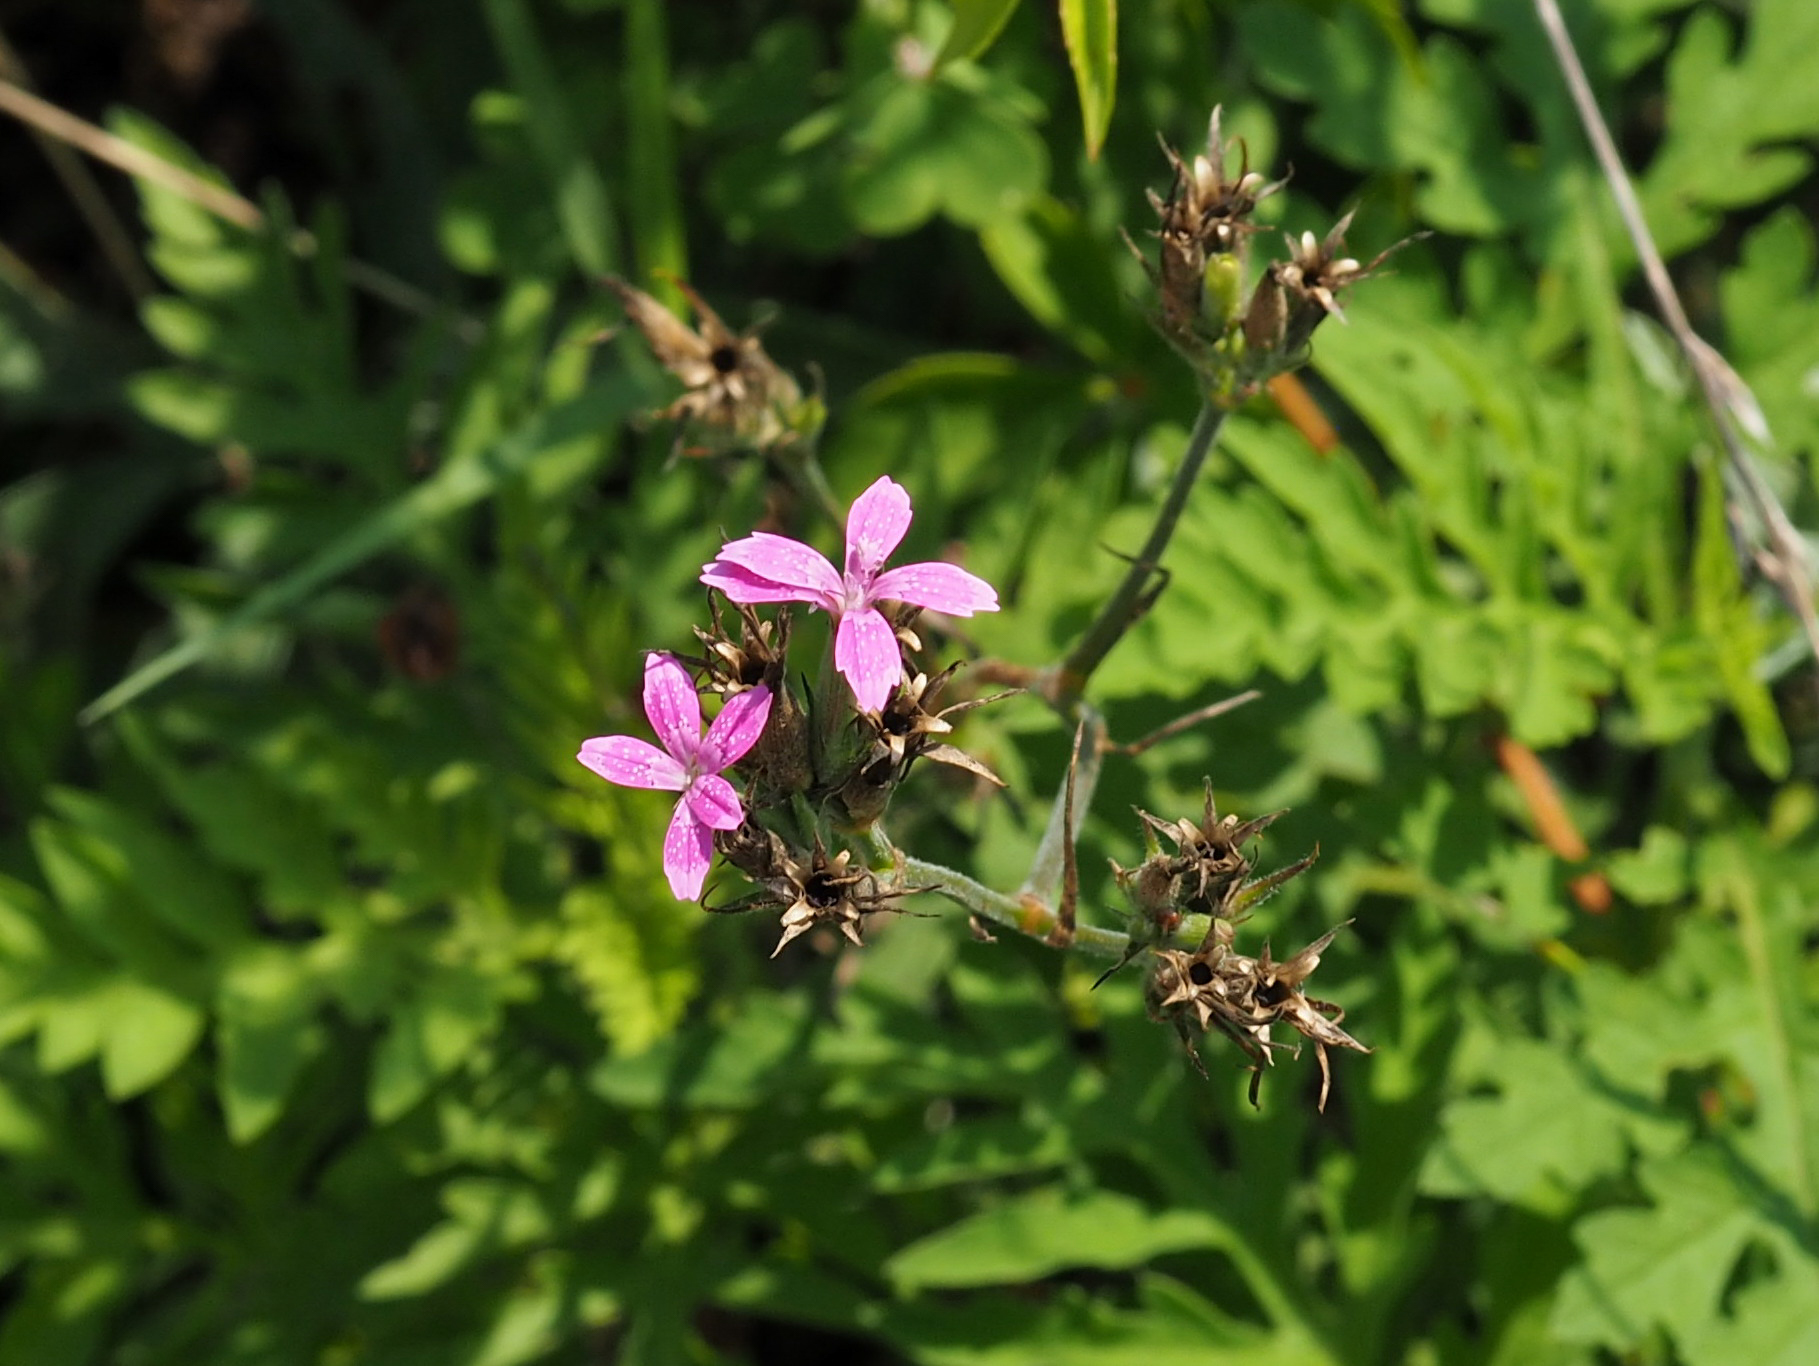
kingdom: Plantae
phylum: Tracheophyta
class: Magnoliopsida
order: Caryophyllales
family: Caryophyllaceae
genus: Dianthus
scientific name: Dianthus armeria
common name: Deptford pink
